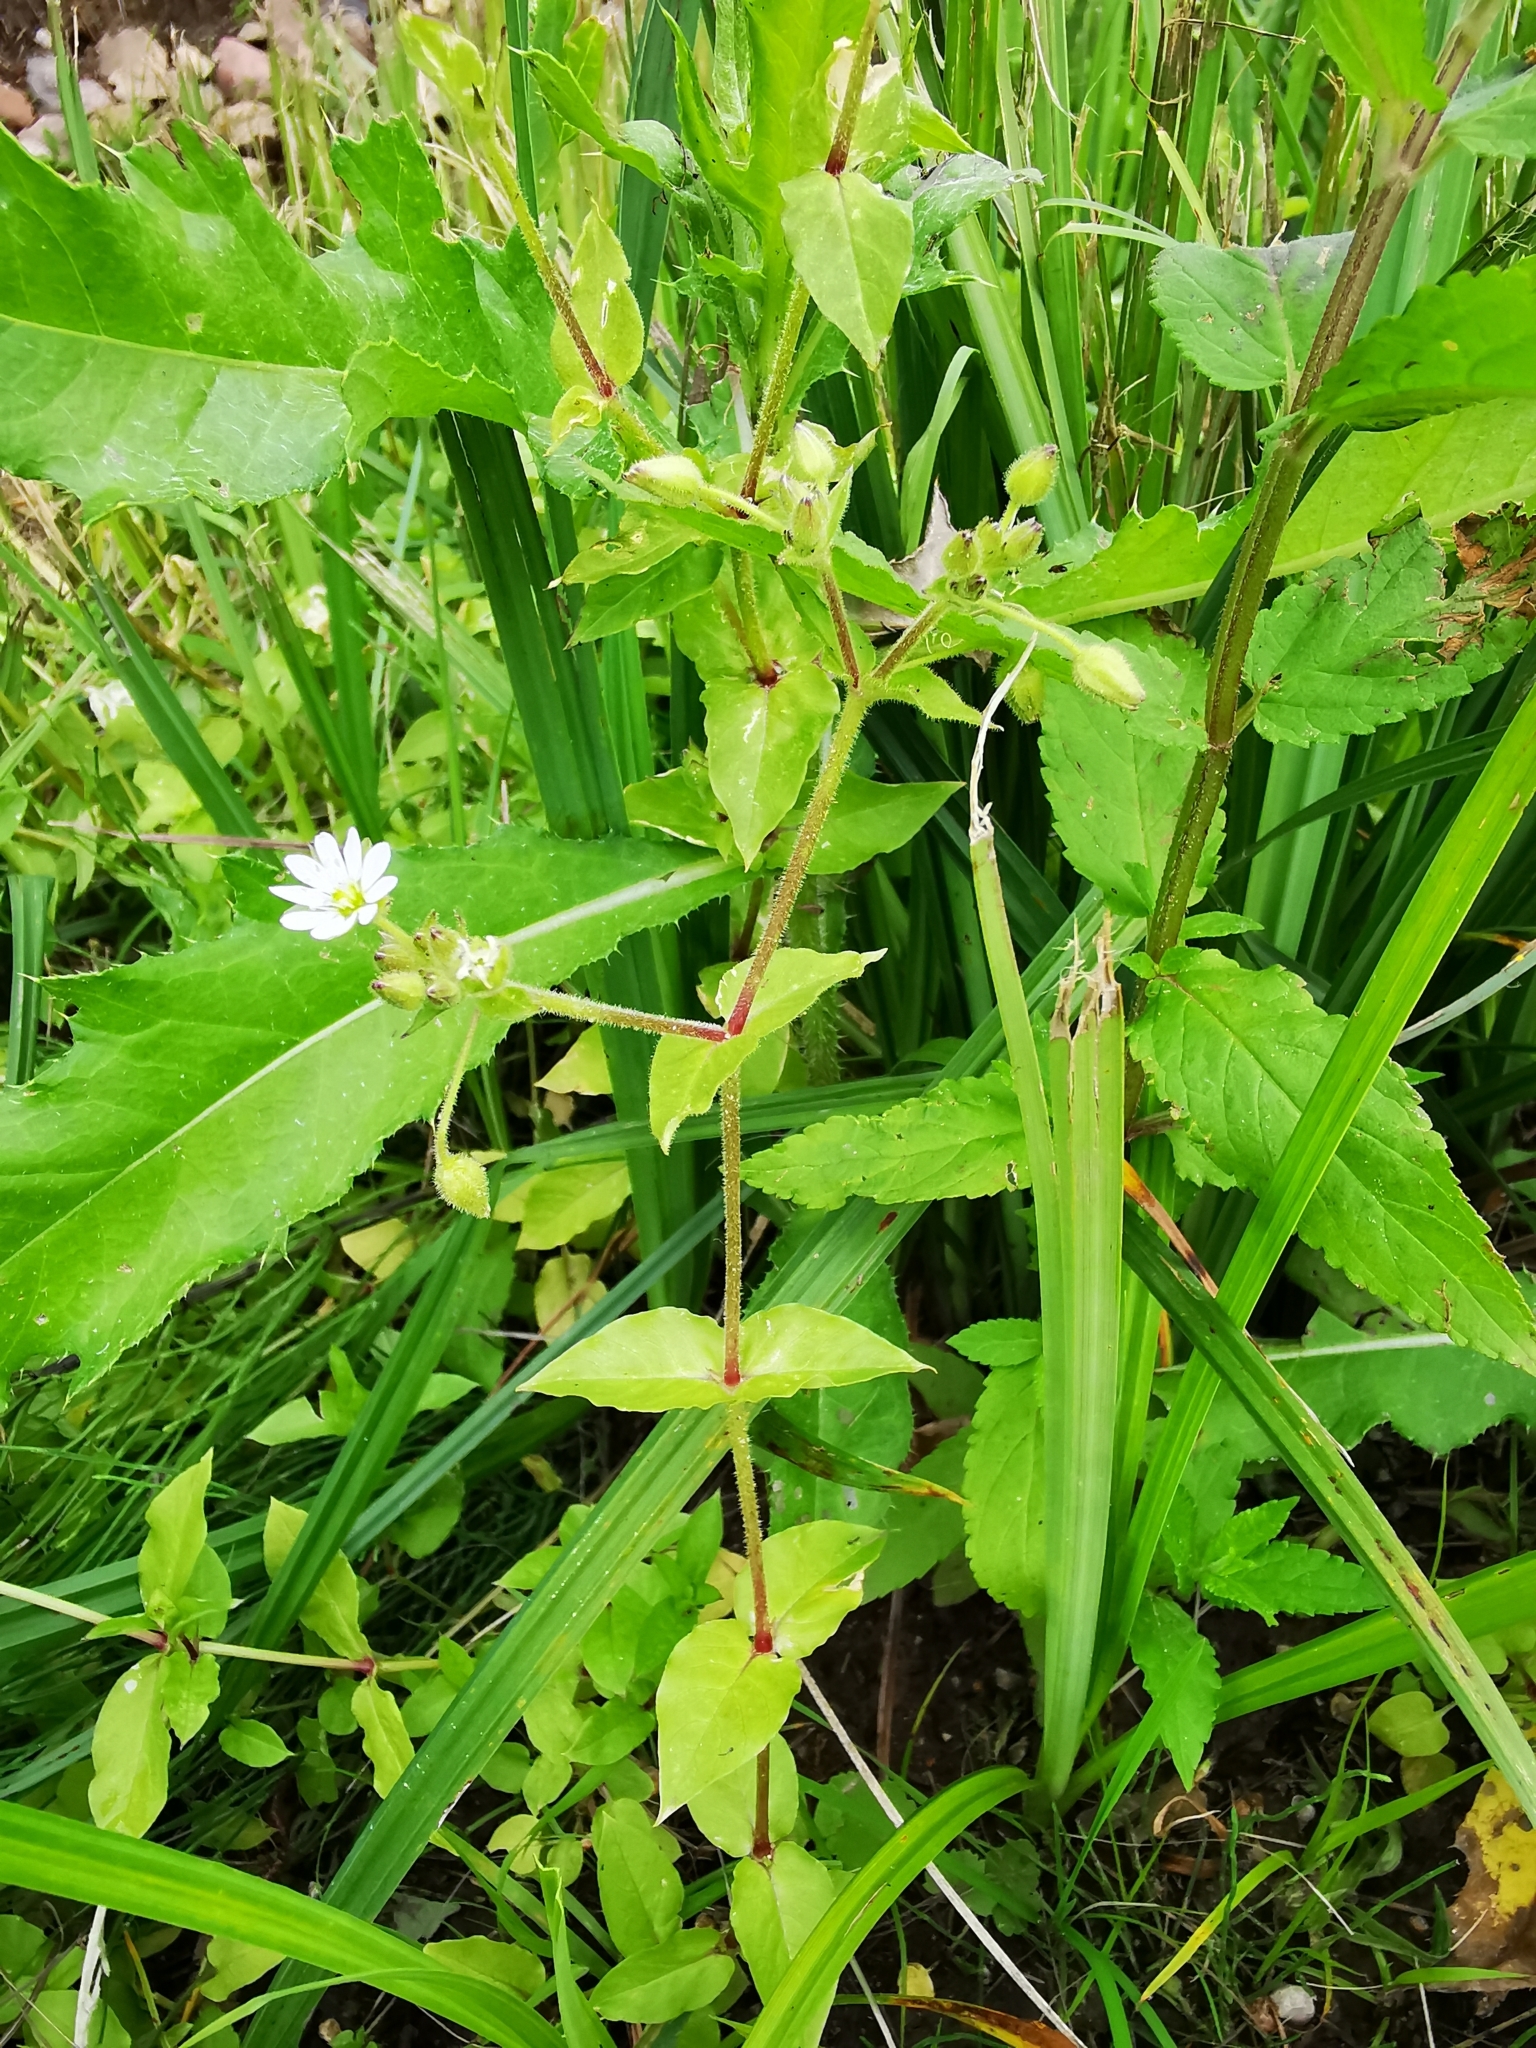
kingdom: Plantae
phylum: Tracheophyta
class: Magnoliopsida
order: Caryophyllales
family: Caryophyllaceae
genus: Stellaria
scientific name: Stellaria aquatica
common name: Water chickweed
